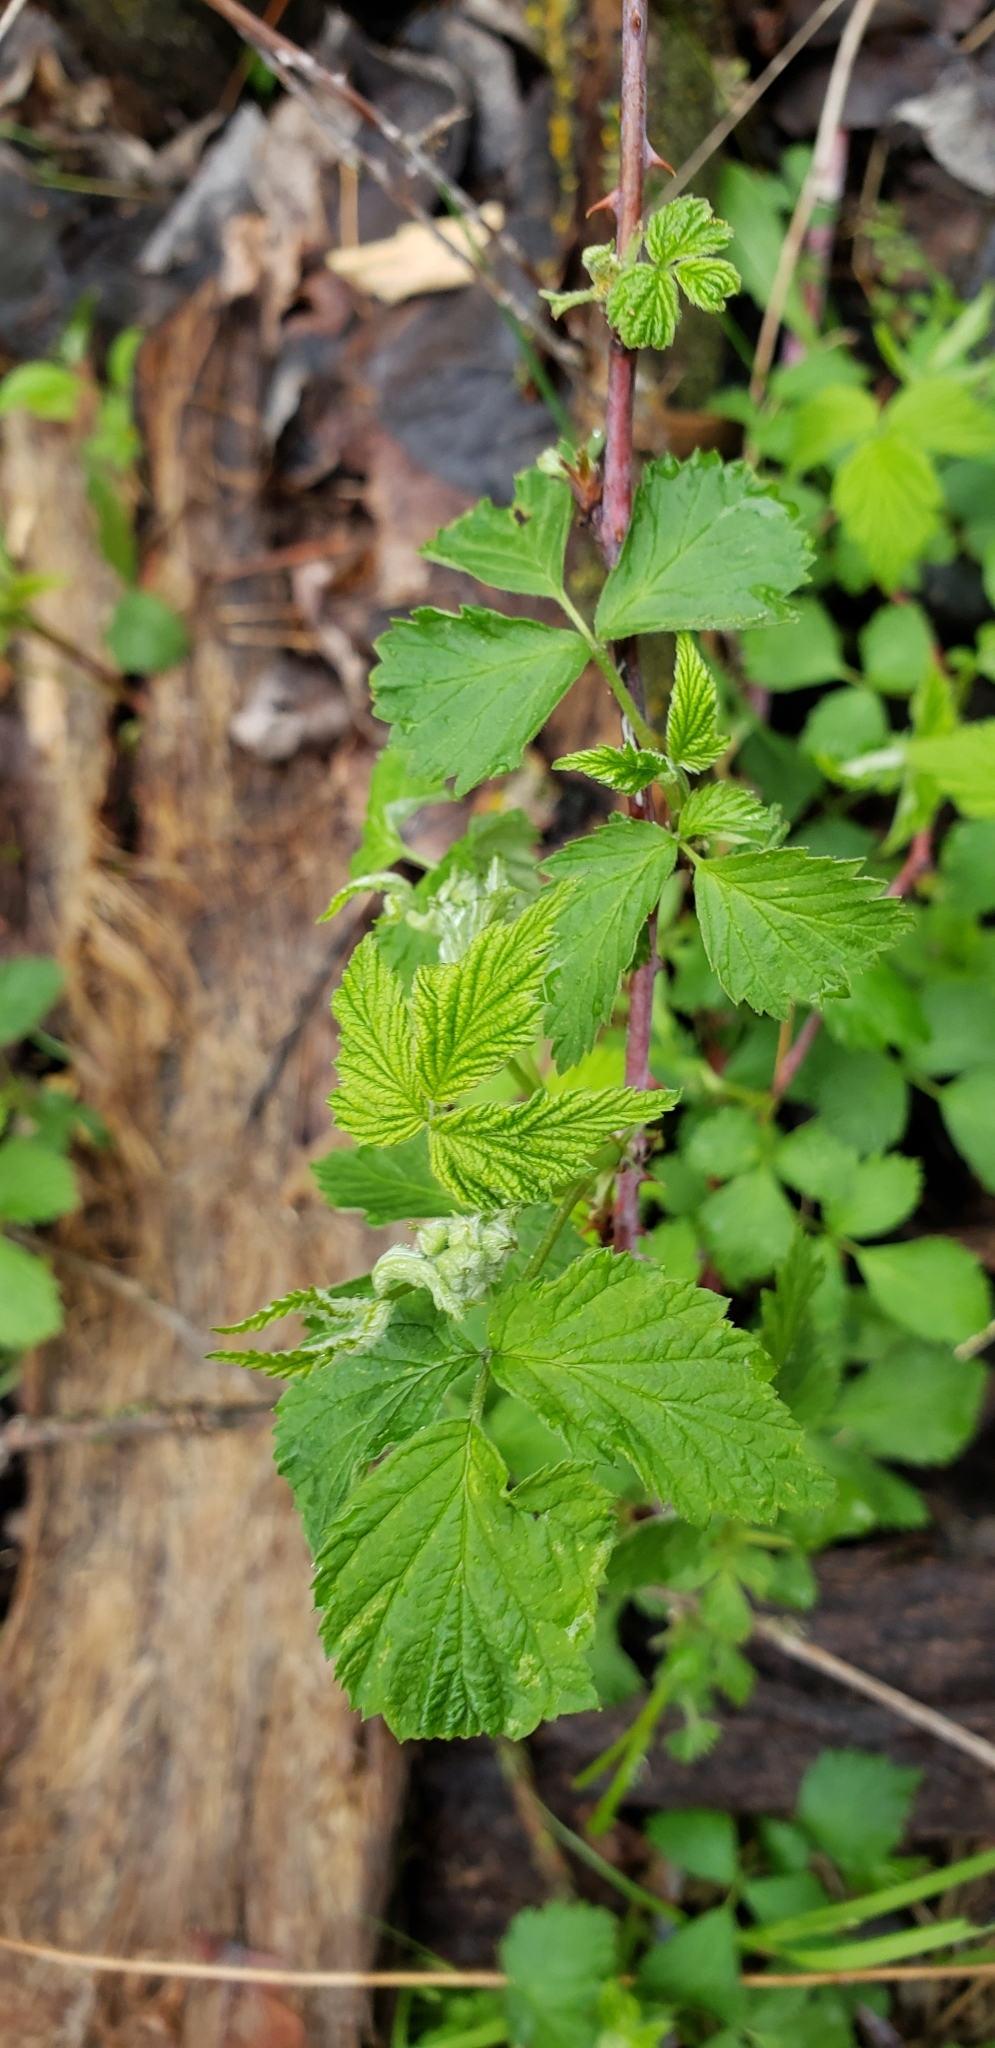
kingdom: Plantae
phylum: Tracheophyta
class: Magnoliopsida
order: Rosales
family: Rosaceae
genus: Rubus
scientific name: Rubus occidentalis
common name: Black raspberry
